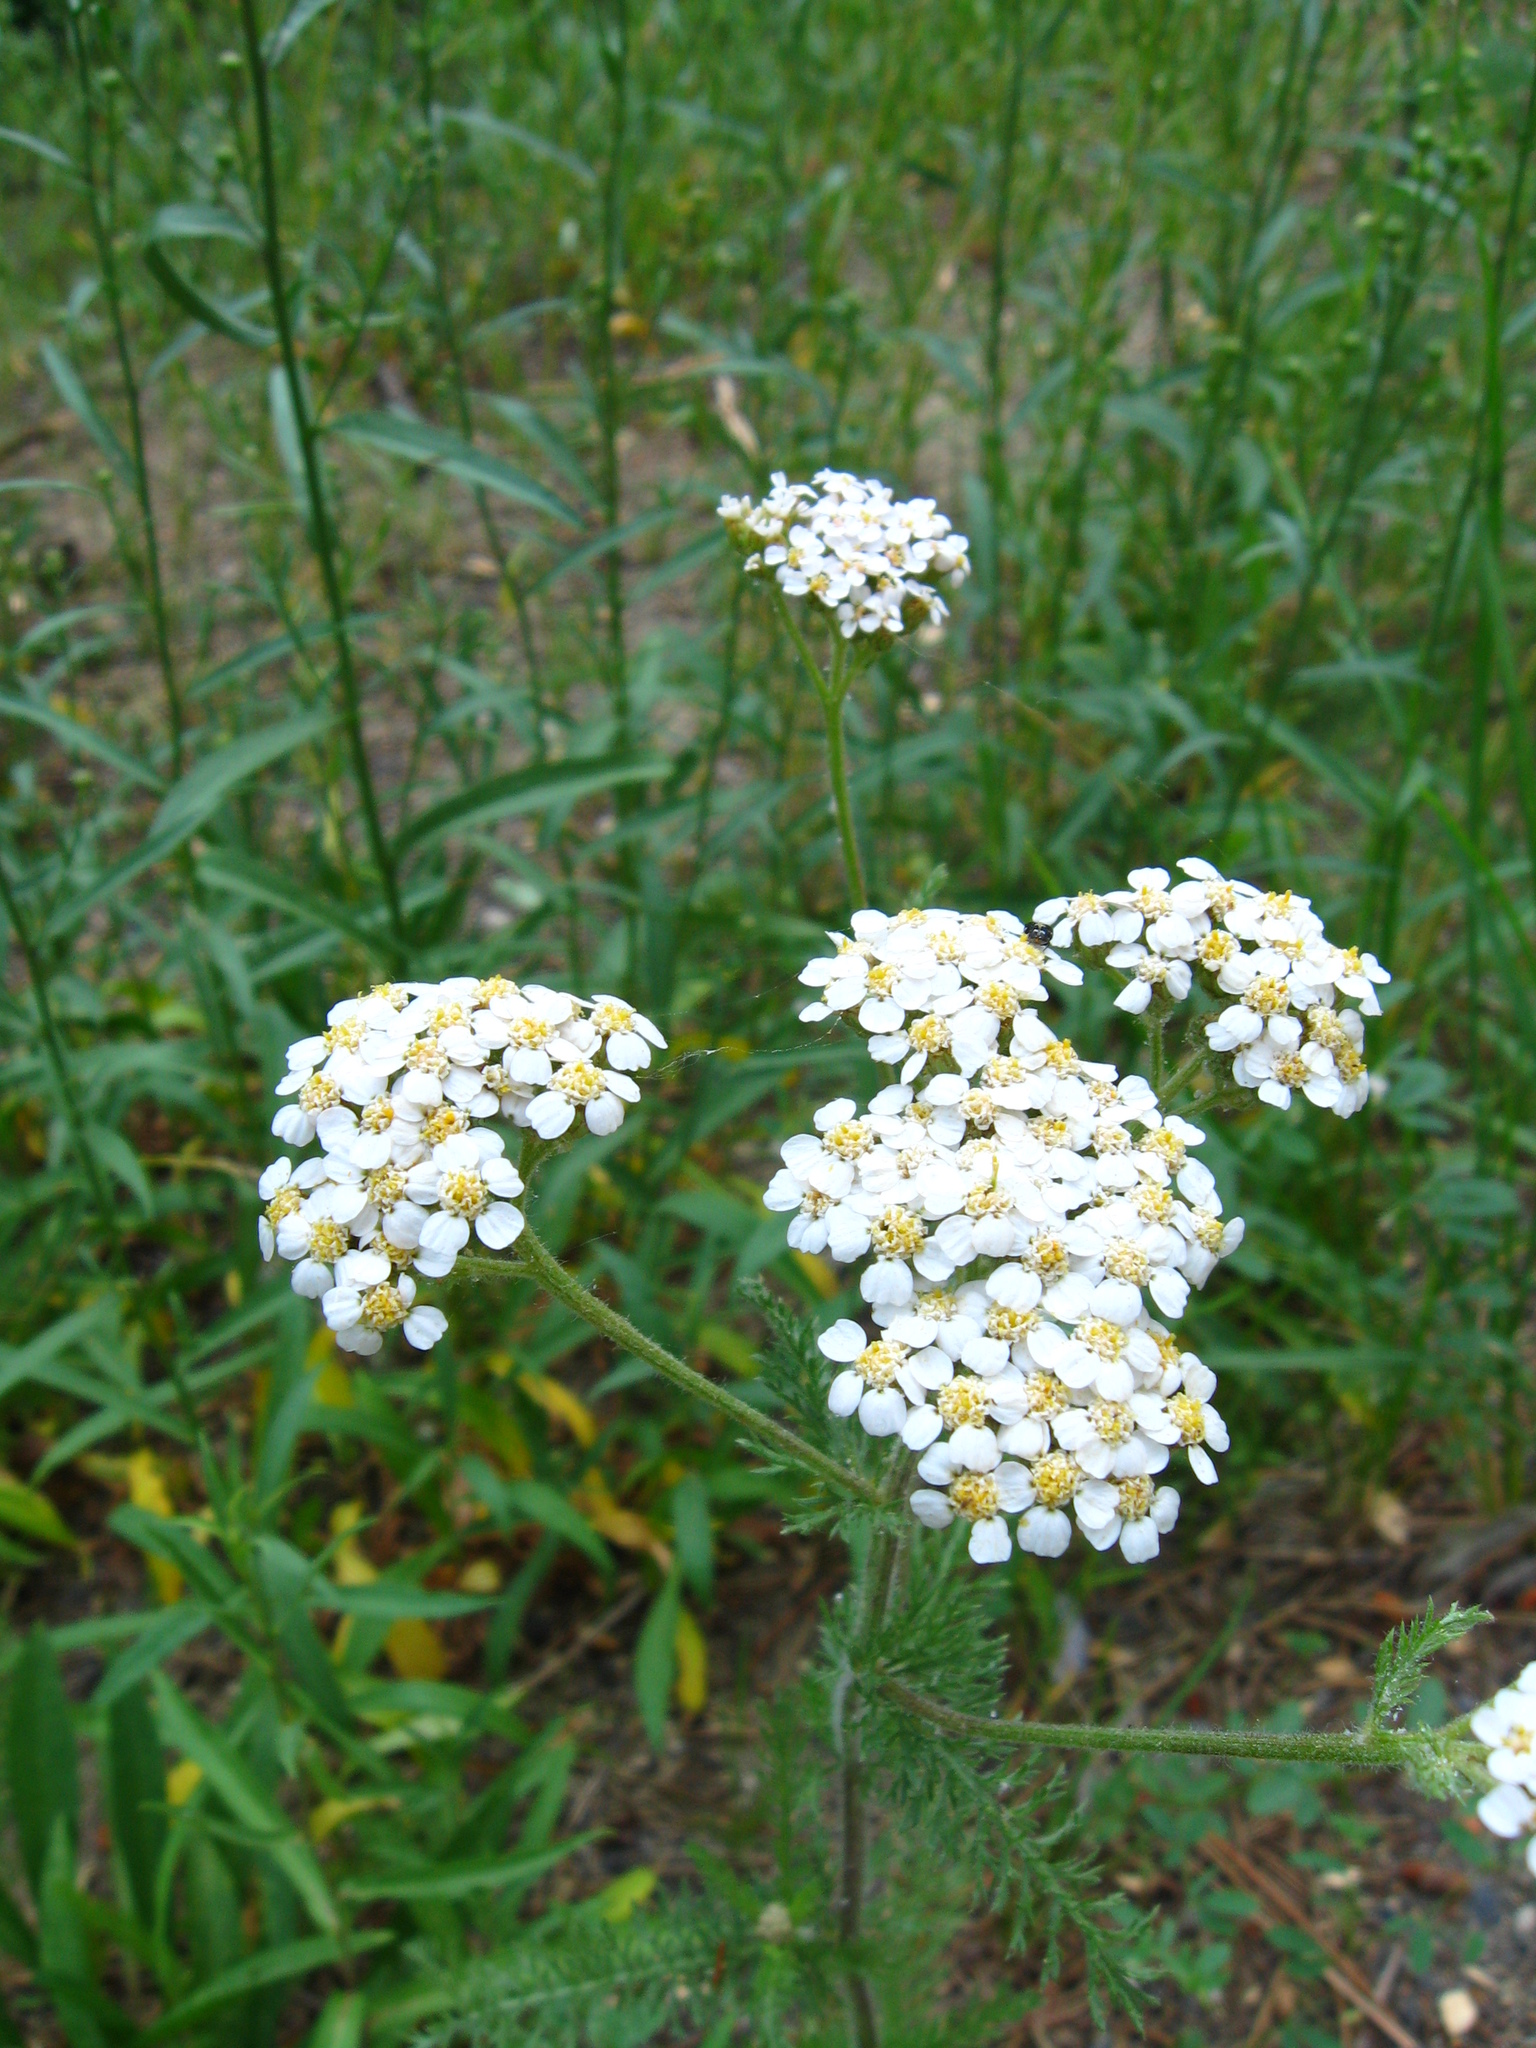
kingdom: Plantae
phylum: Tracheophyta
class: Magnoliopsida
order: Asterales
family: Asteraceae
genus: Achillea
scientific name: Achillea millefolium
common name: Yarrow
